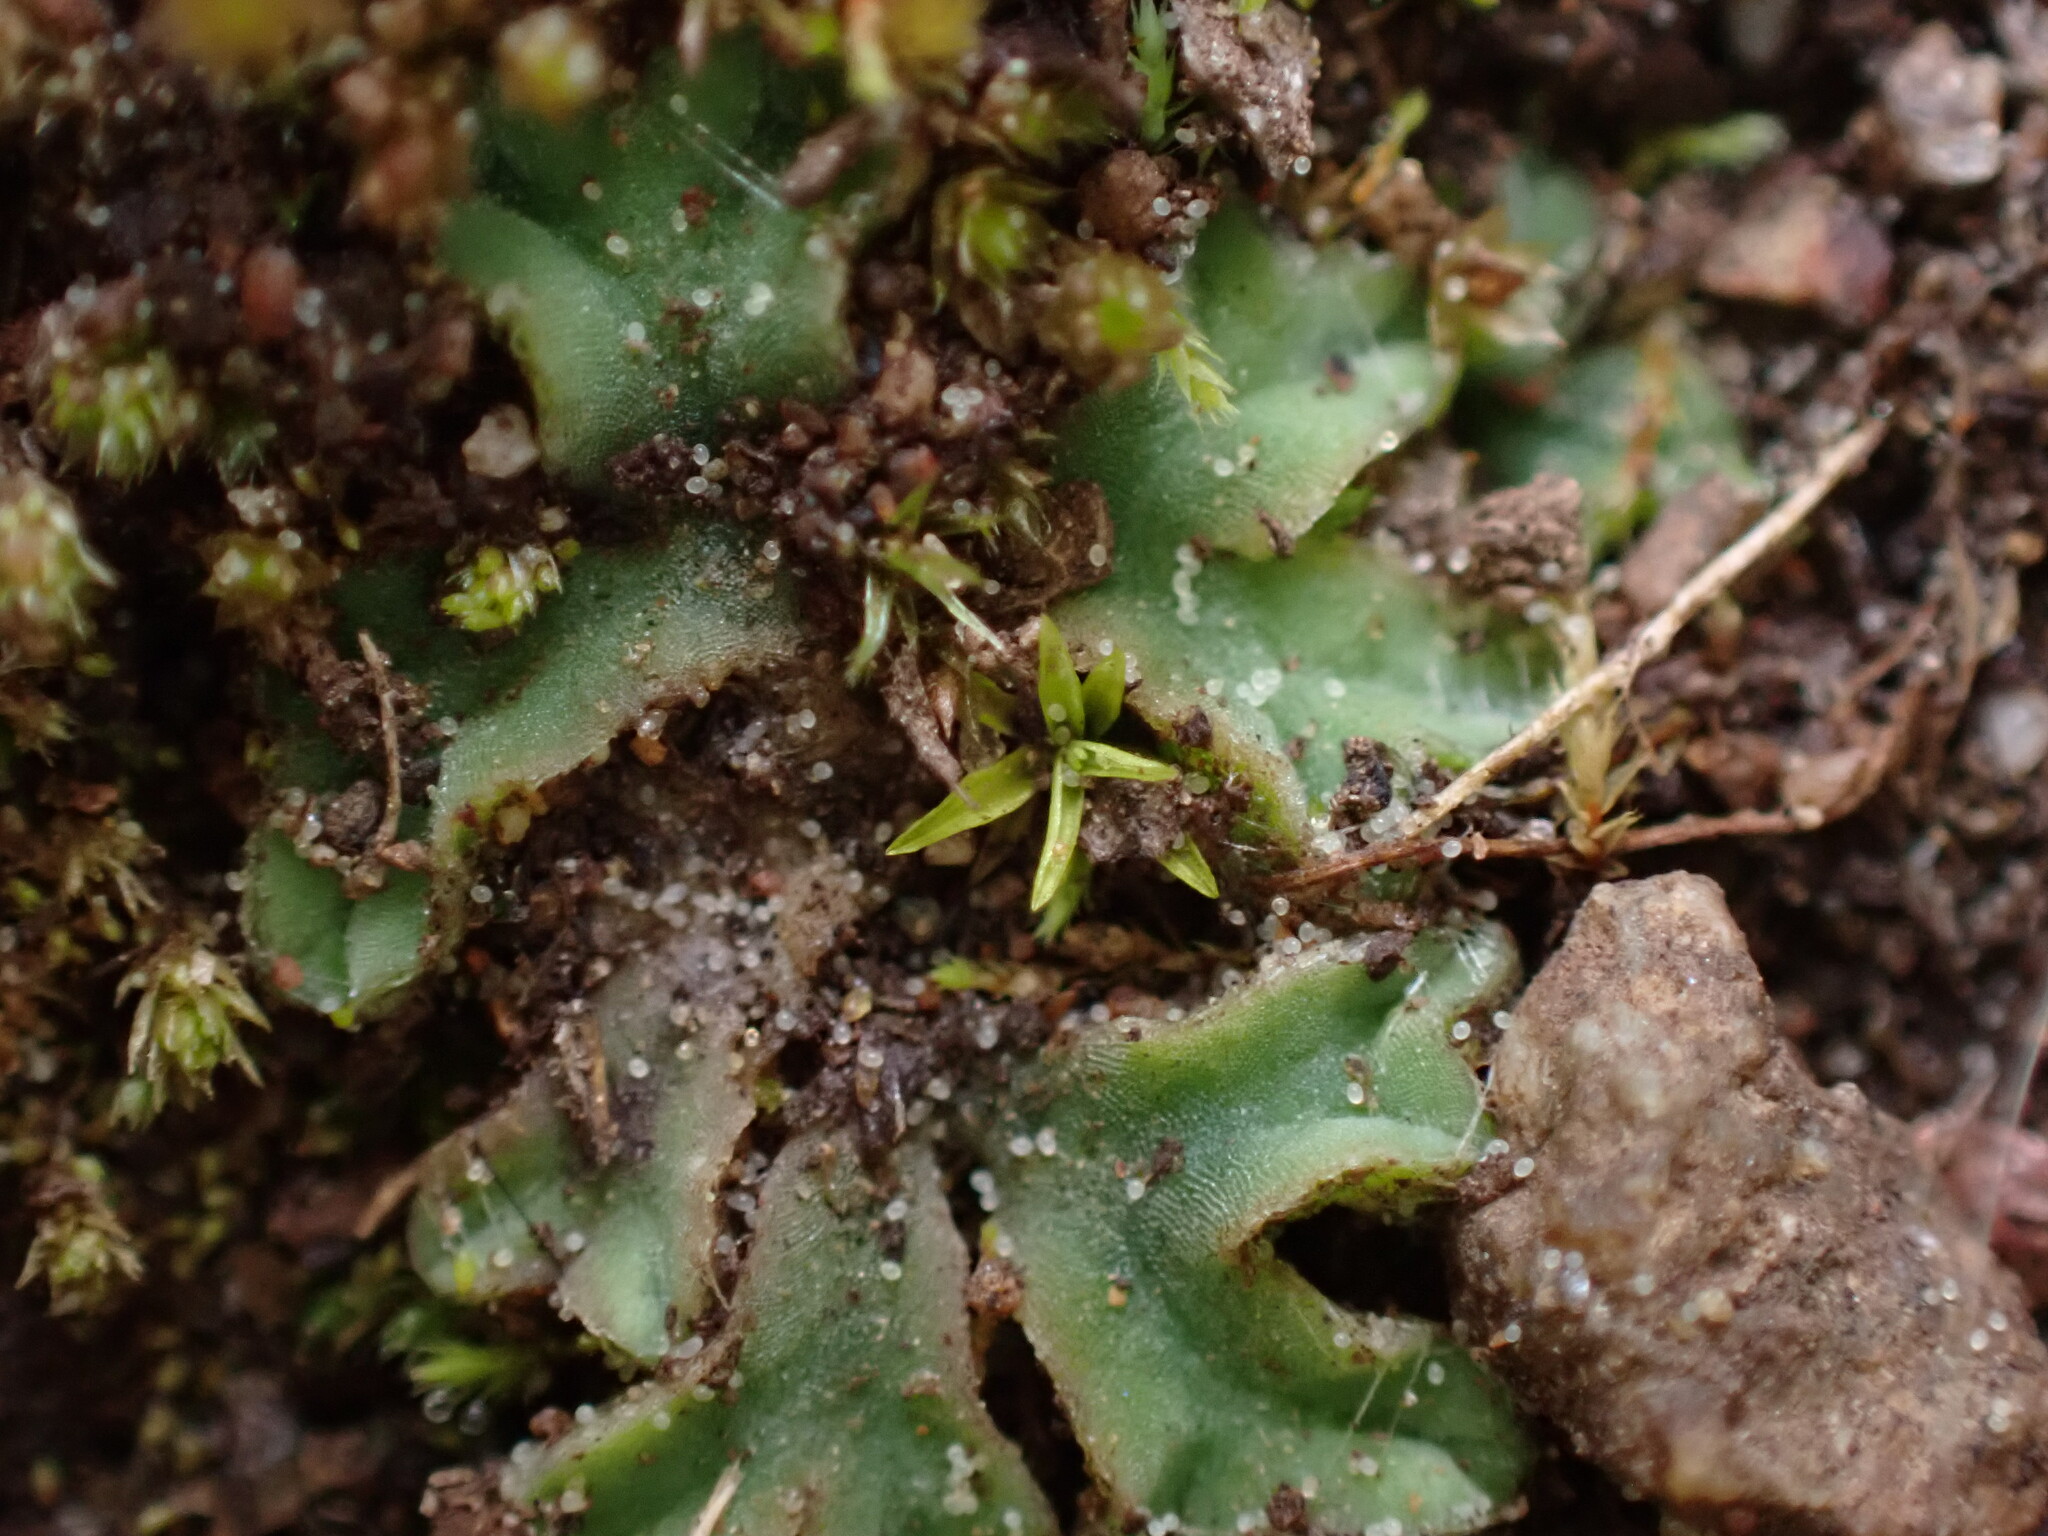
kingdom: Plantae
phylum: Marchantiophyta
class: Marchantiopsida
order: Marchantiales
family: Ricciaceae
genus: Riccia
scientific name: Riccia sorocarpa
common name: Common crystalwort
